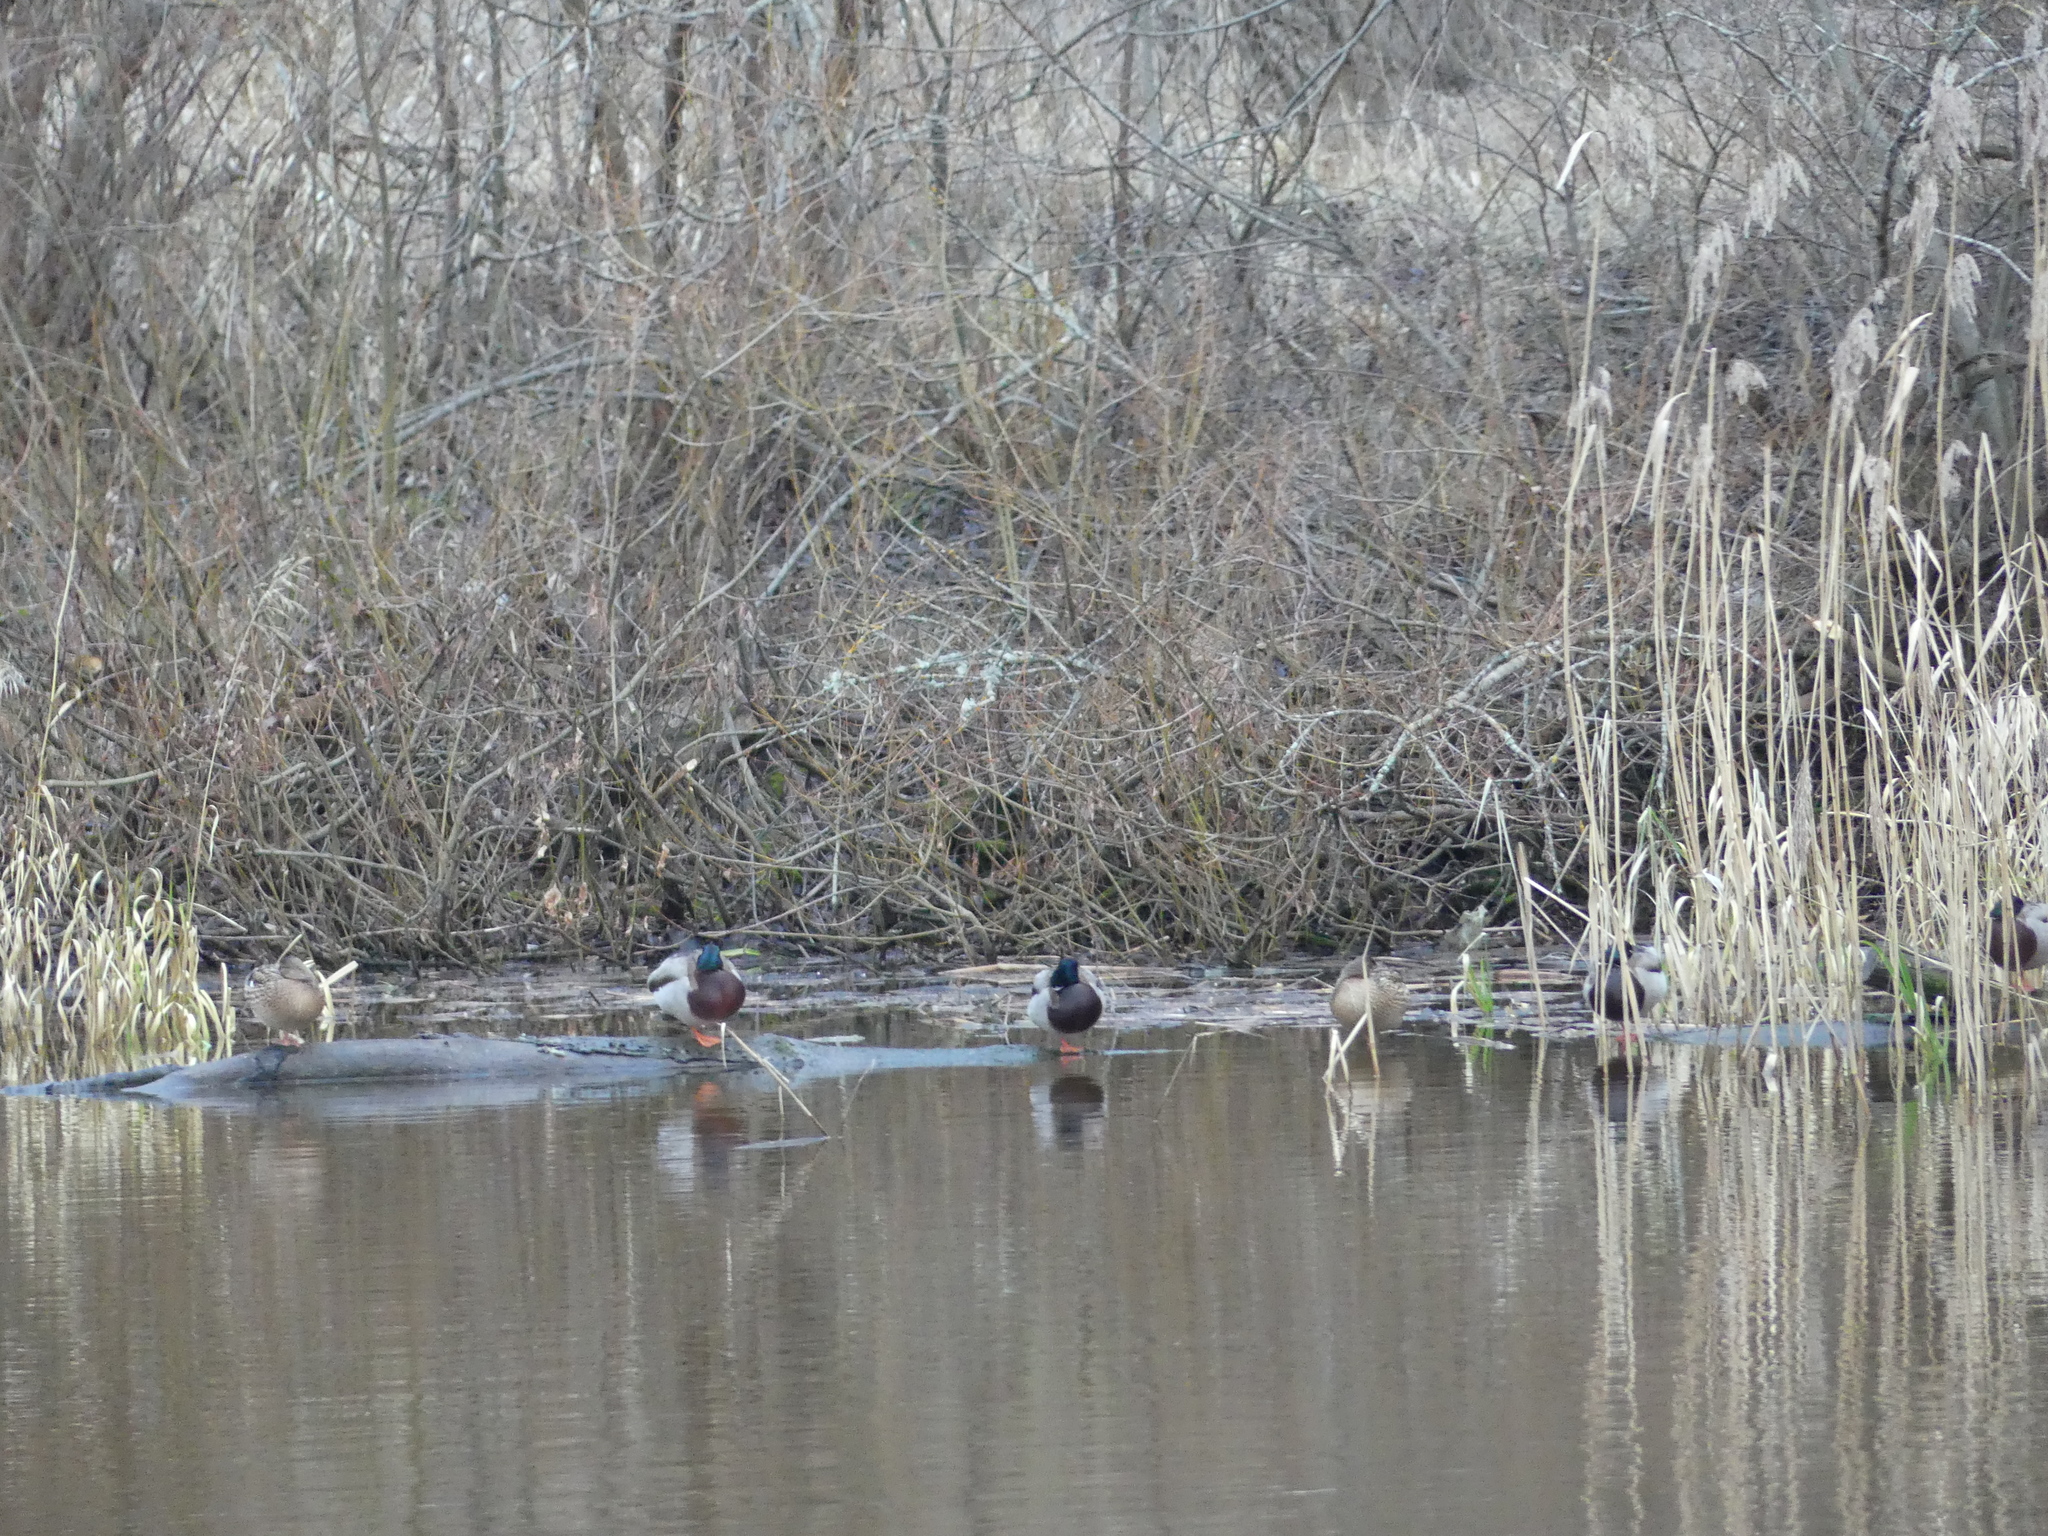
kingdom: Animalia
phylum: Chordata
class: Aves
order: Anseriformes
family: Anatidae
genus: Anas
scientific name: Anas platyrhynchos
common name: Mallard
